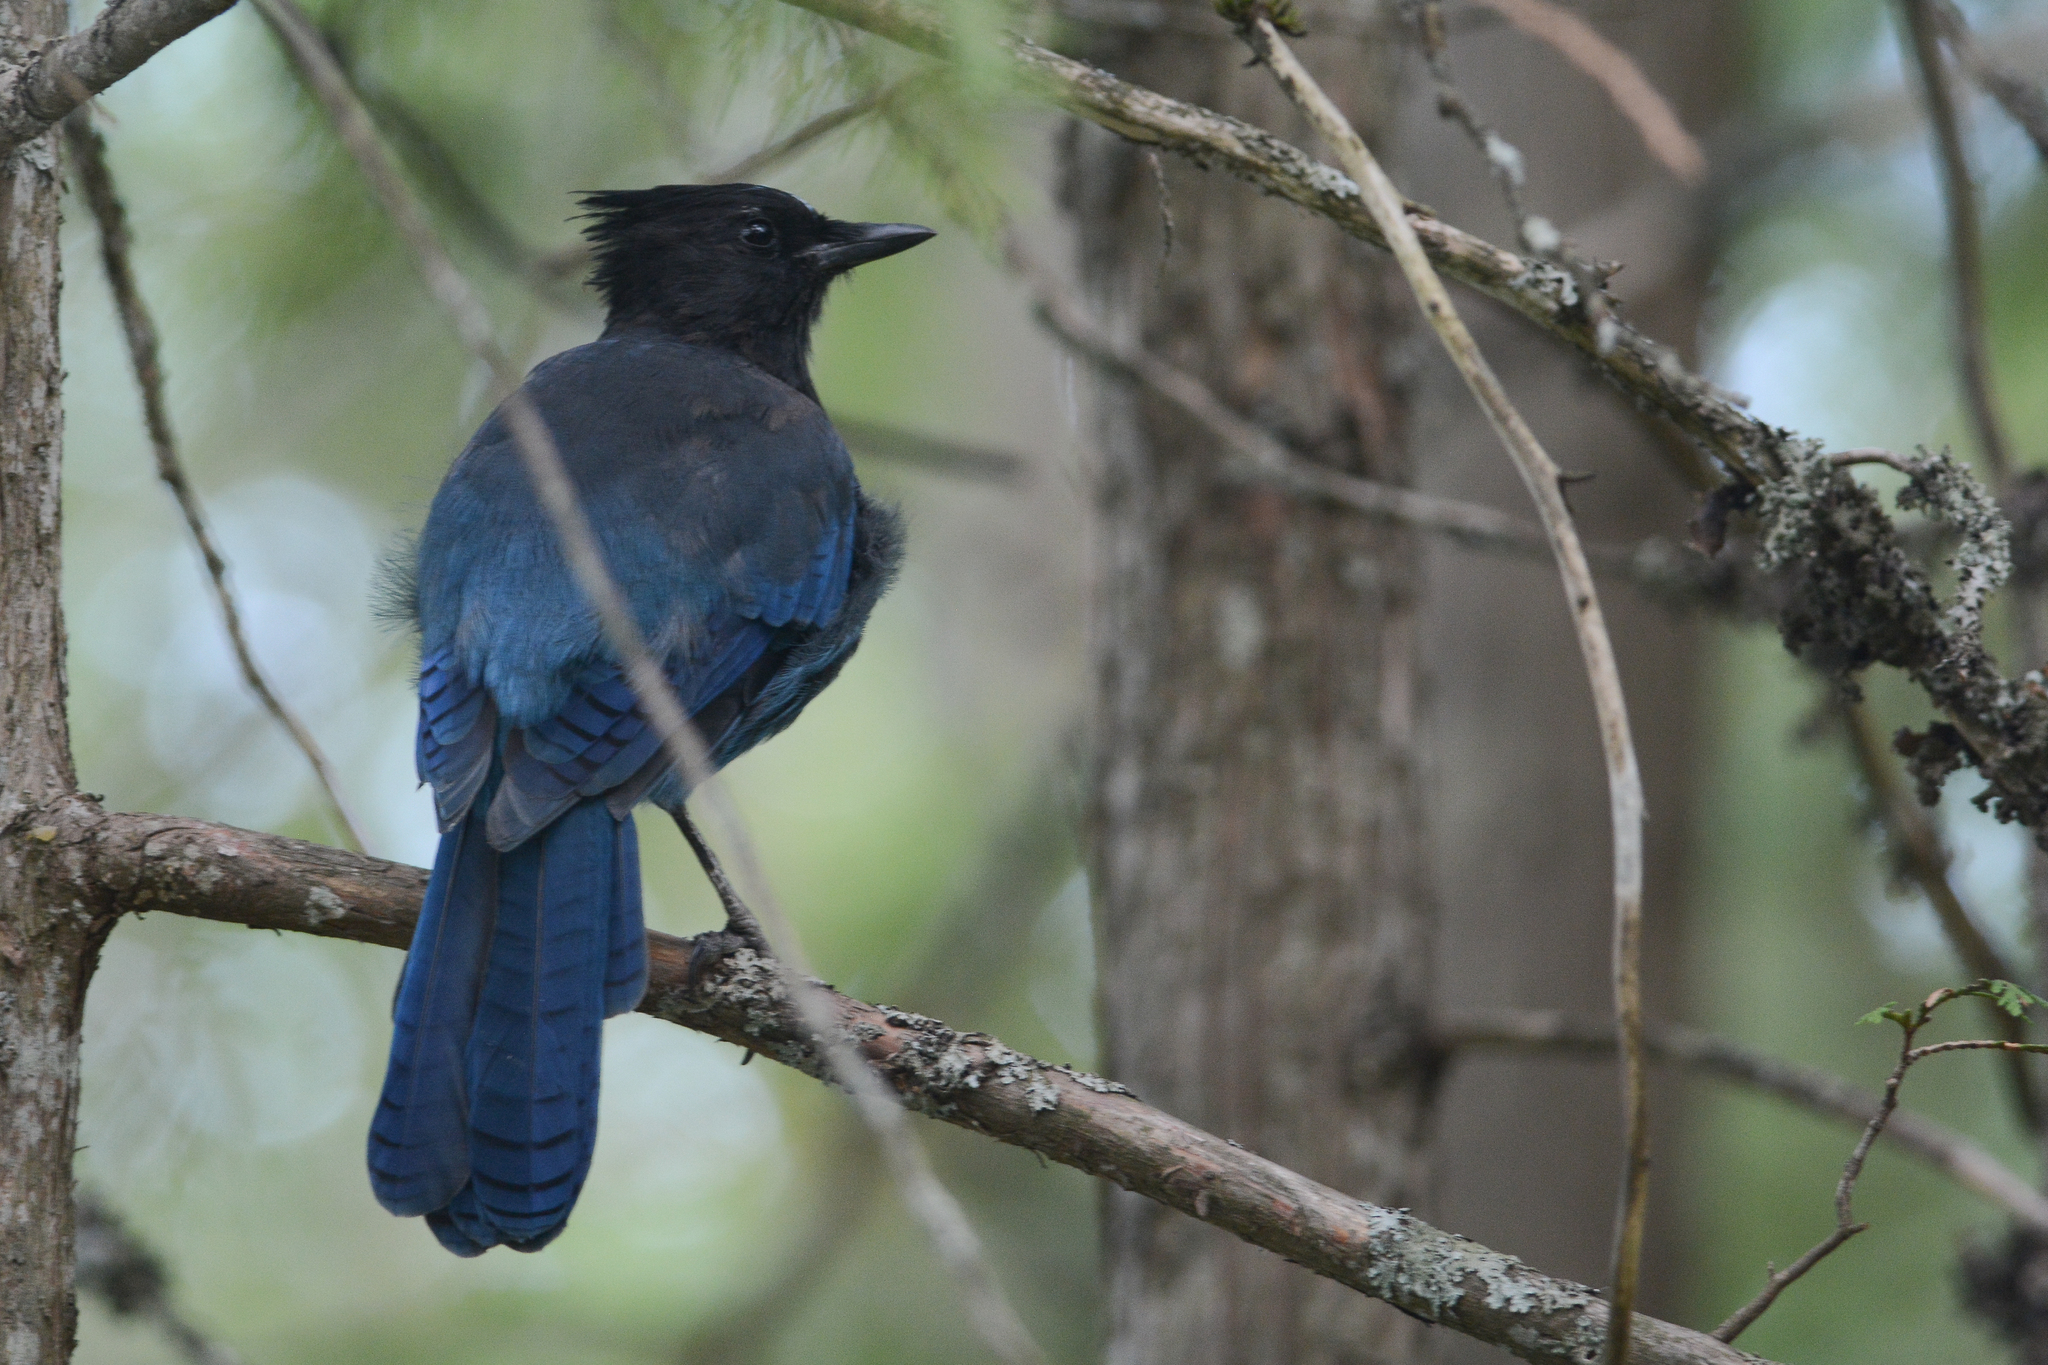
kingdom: Animalia
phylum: Chordata
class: Aves
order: Passeriformes
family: Corvidae
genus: Cyanocitta
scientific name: Cyanocitta stelleri
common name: Steller's jay
